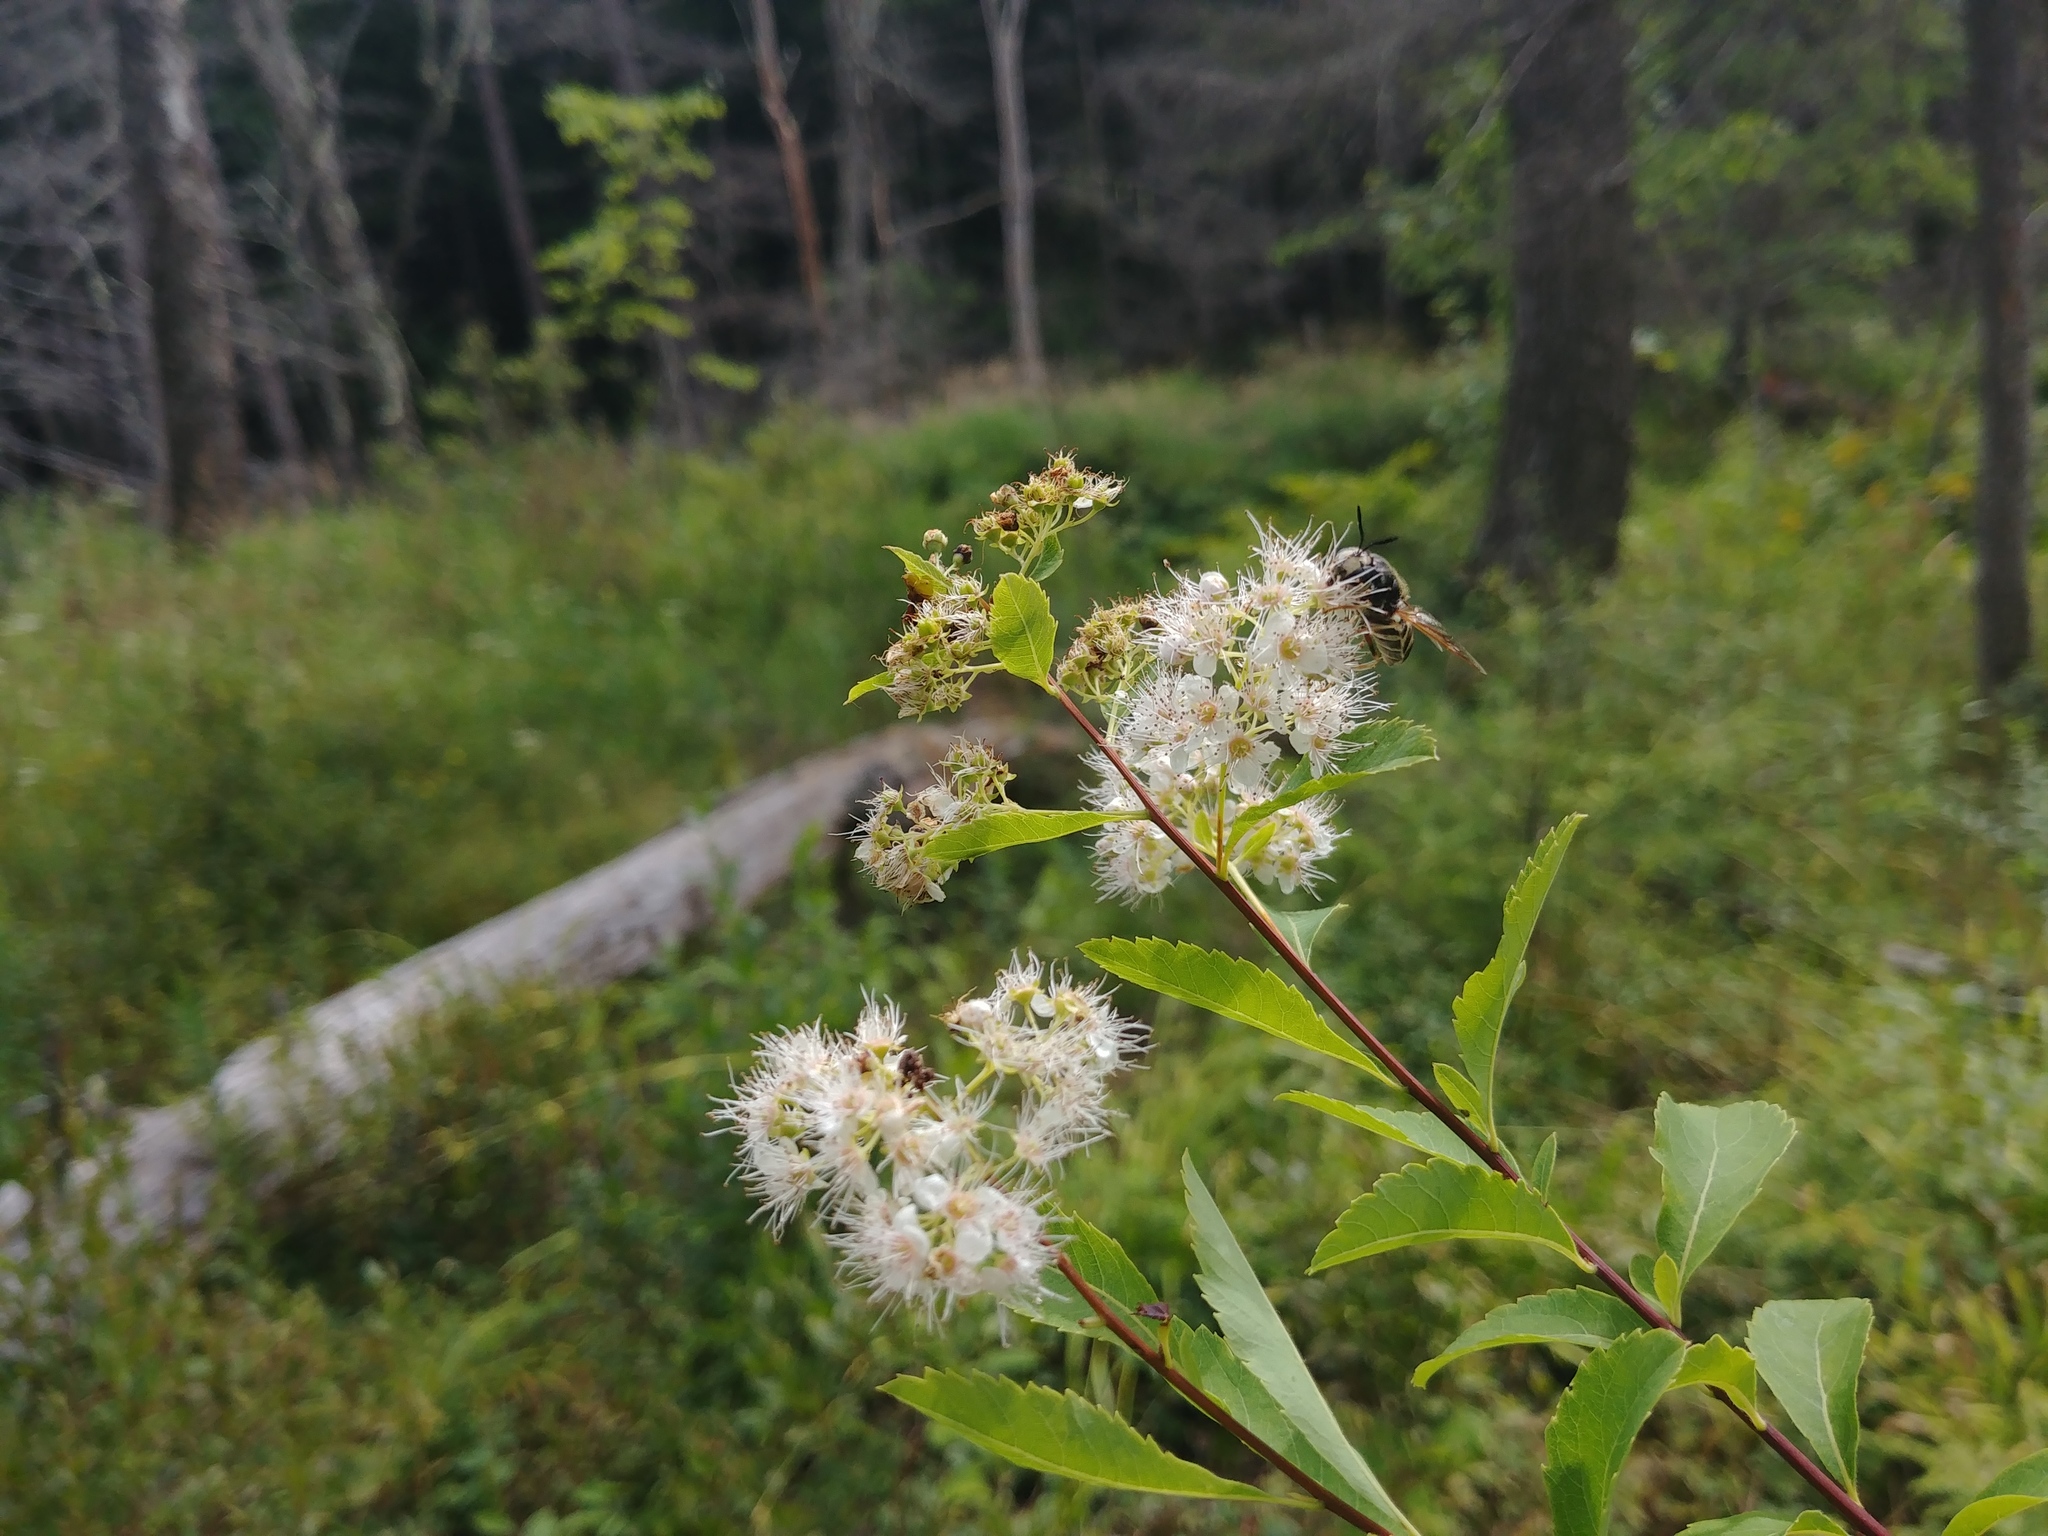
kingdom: Animalia
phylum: Arthropoda
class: Insecta
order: Diptera
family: Stratiomyidae
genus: Stratiomys
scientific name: Stratiomys badia
